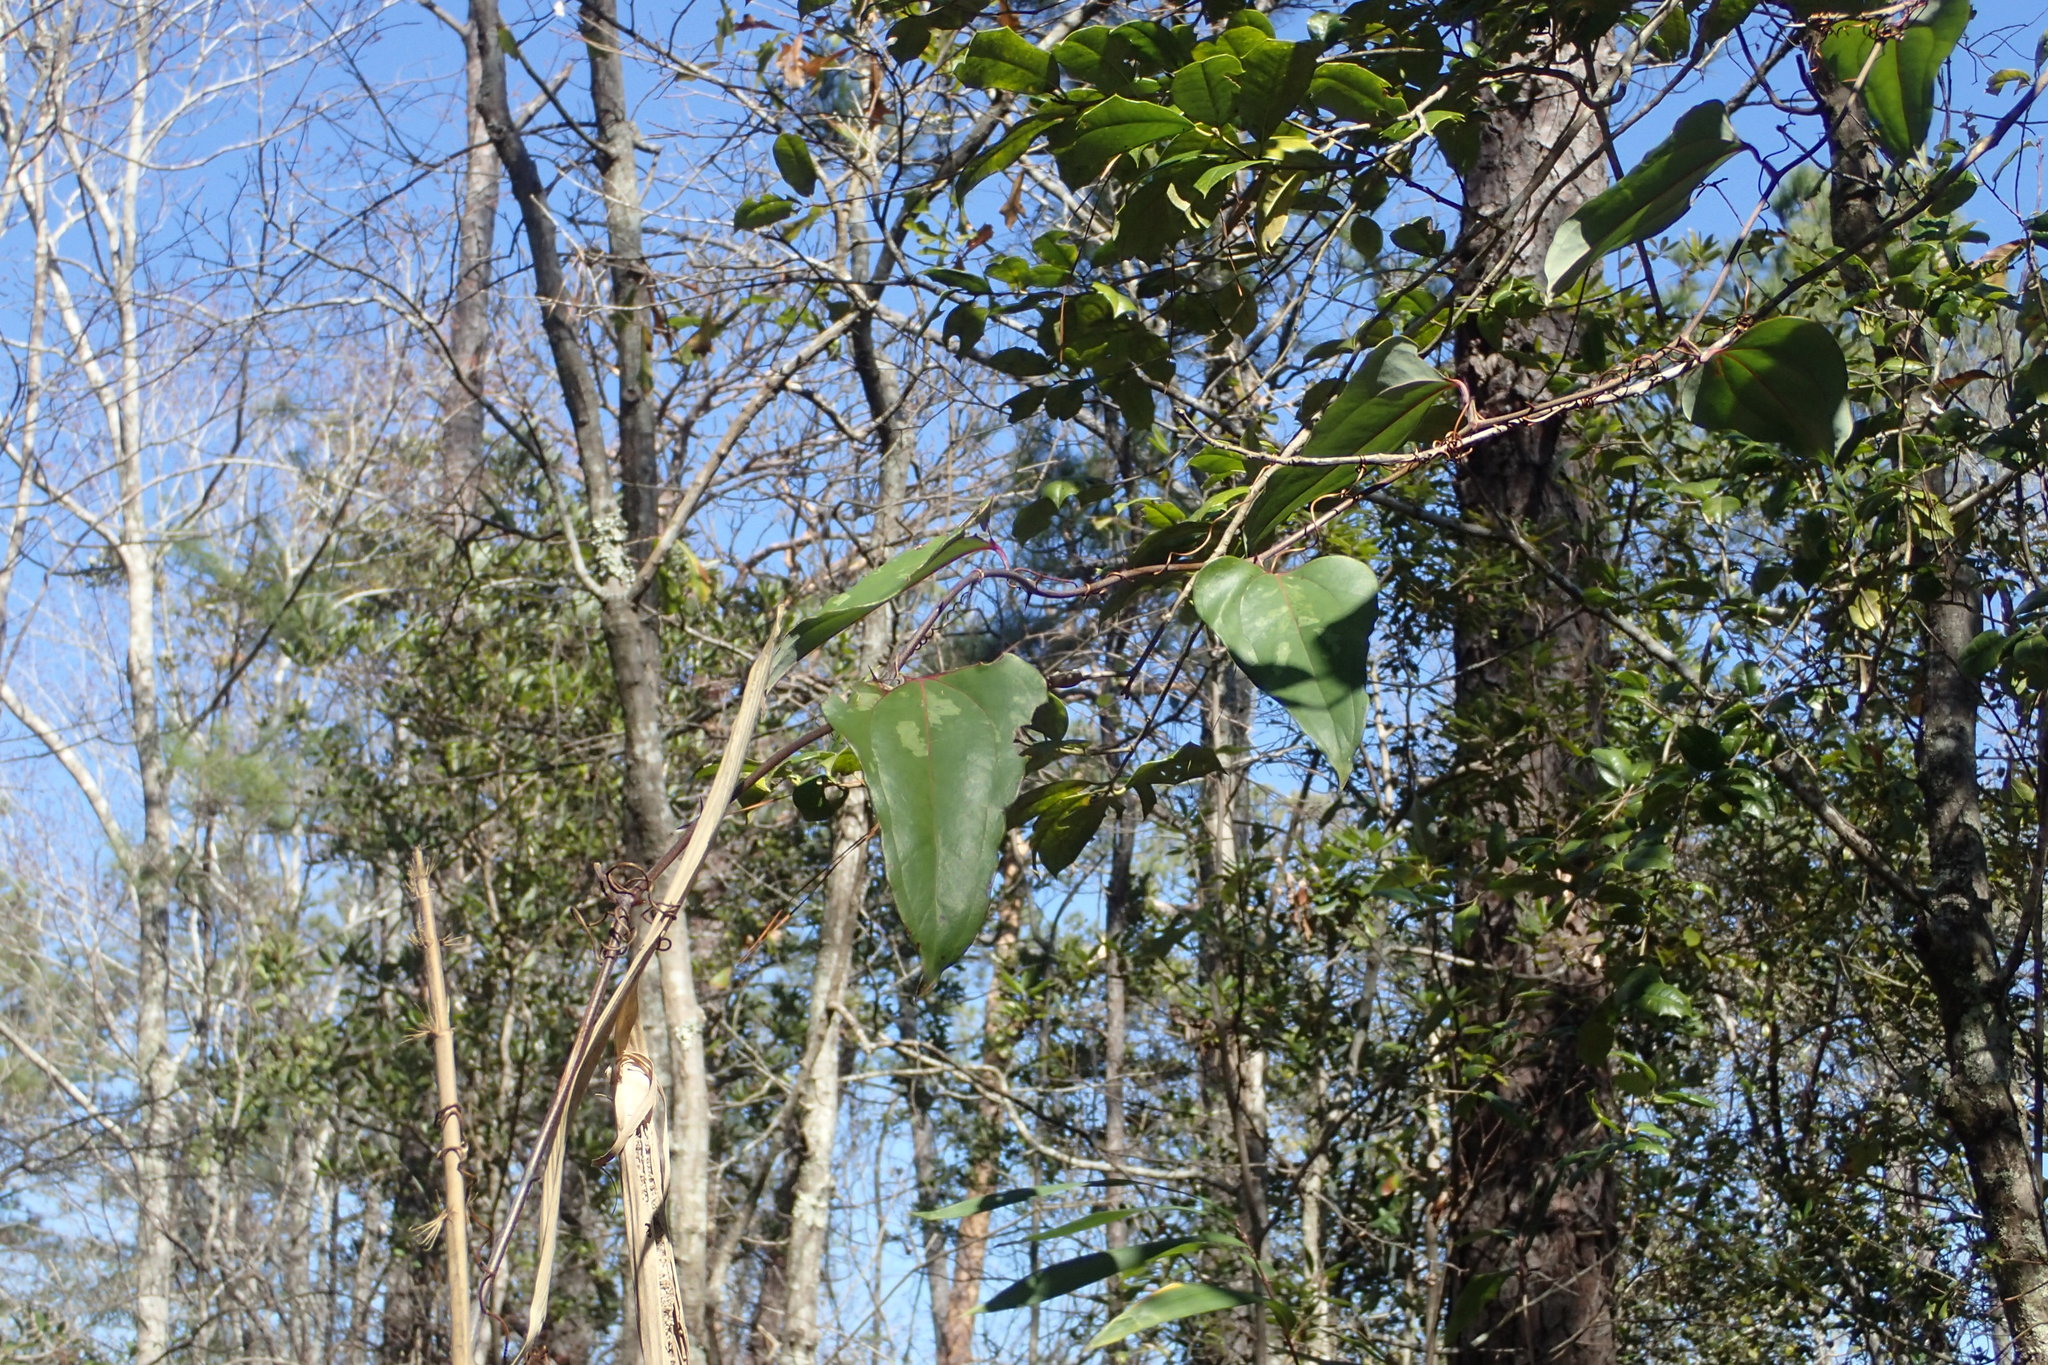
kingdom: Plantae
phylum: Tracheophyta
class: Liliopsida
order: Liliales
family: Smilacaceae
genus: Smilax
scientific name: Smilax glauca
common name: Cat greenbrier
